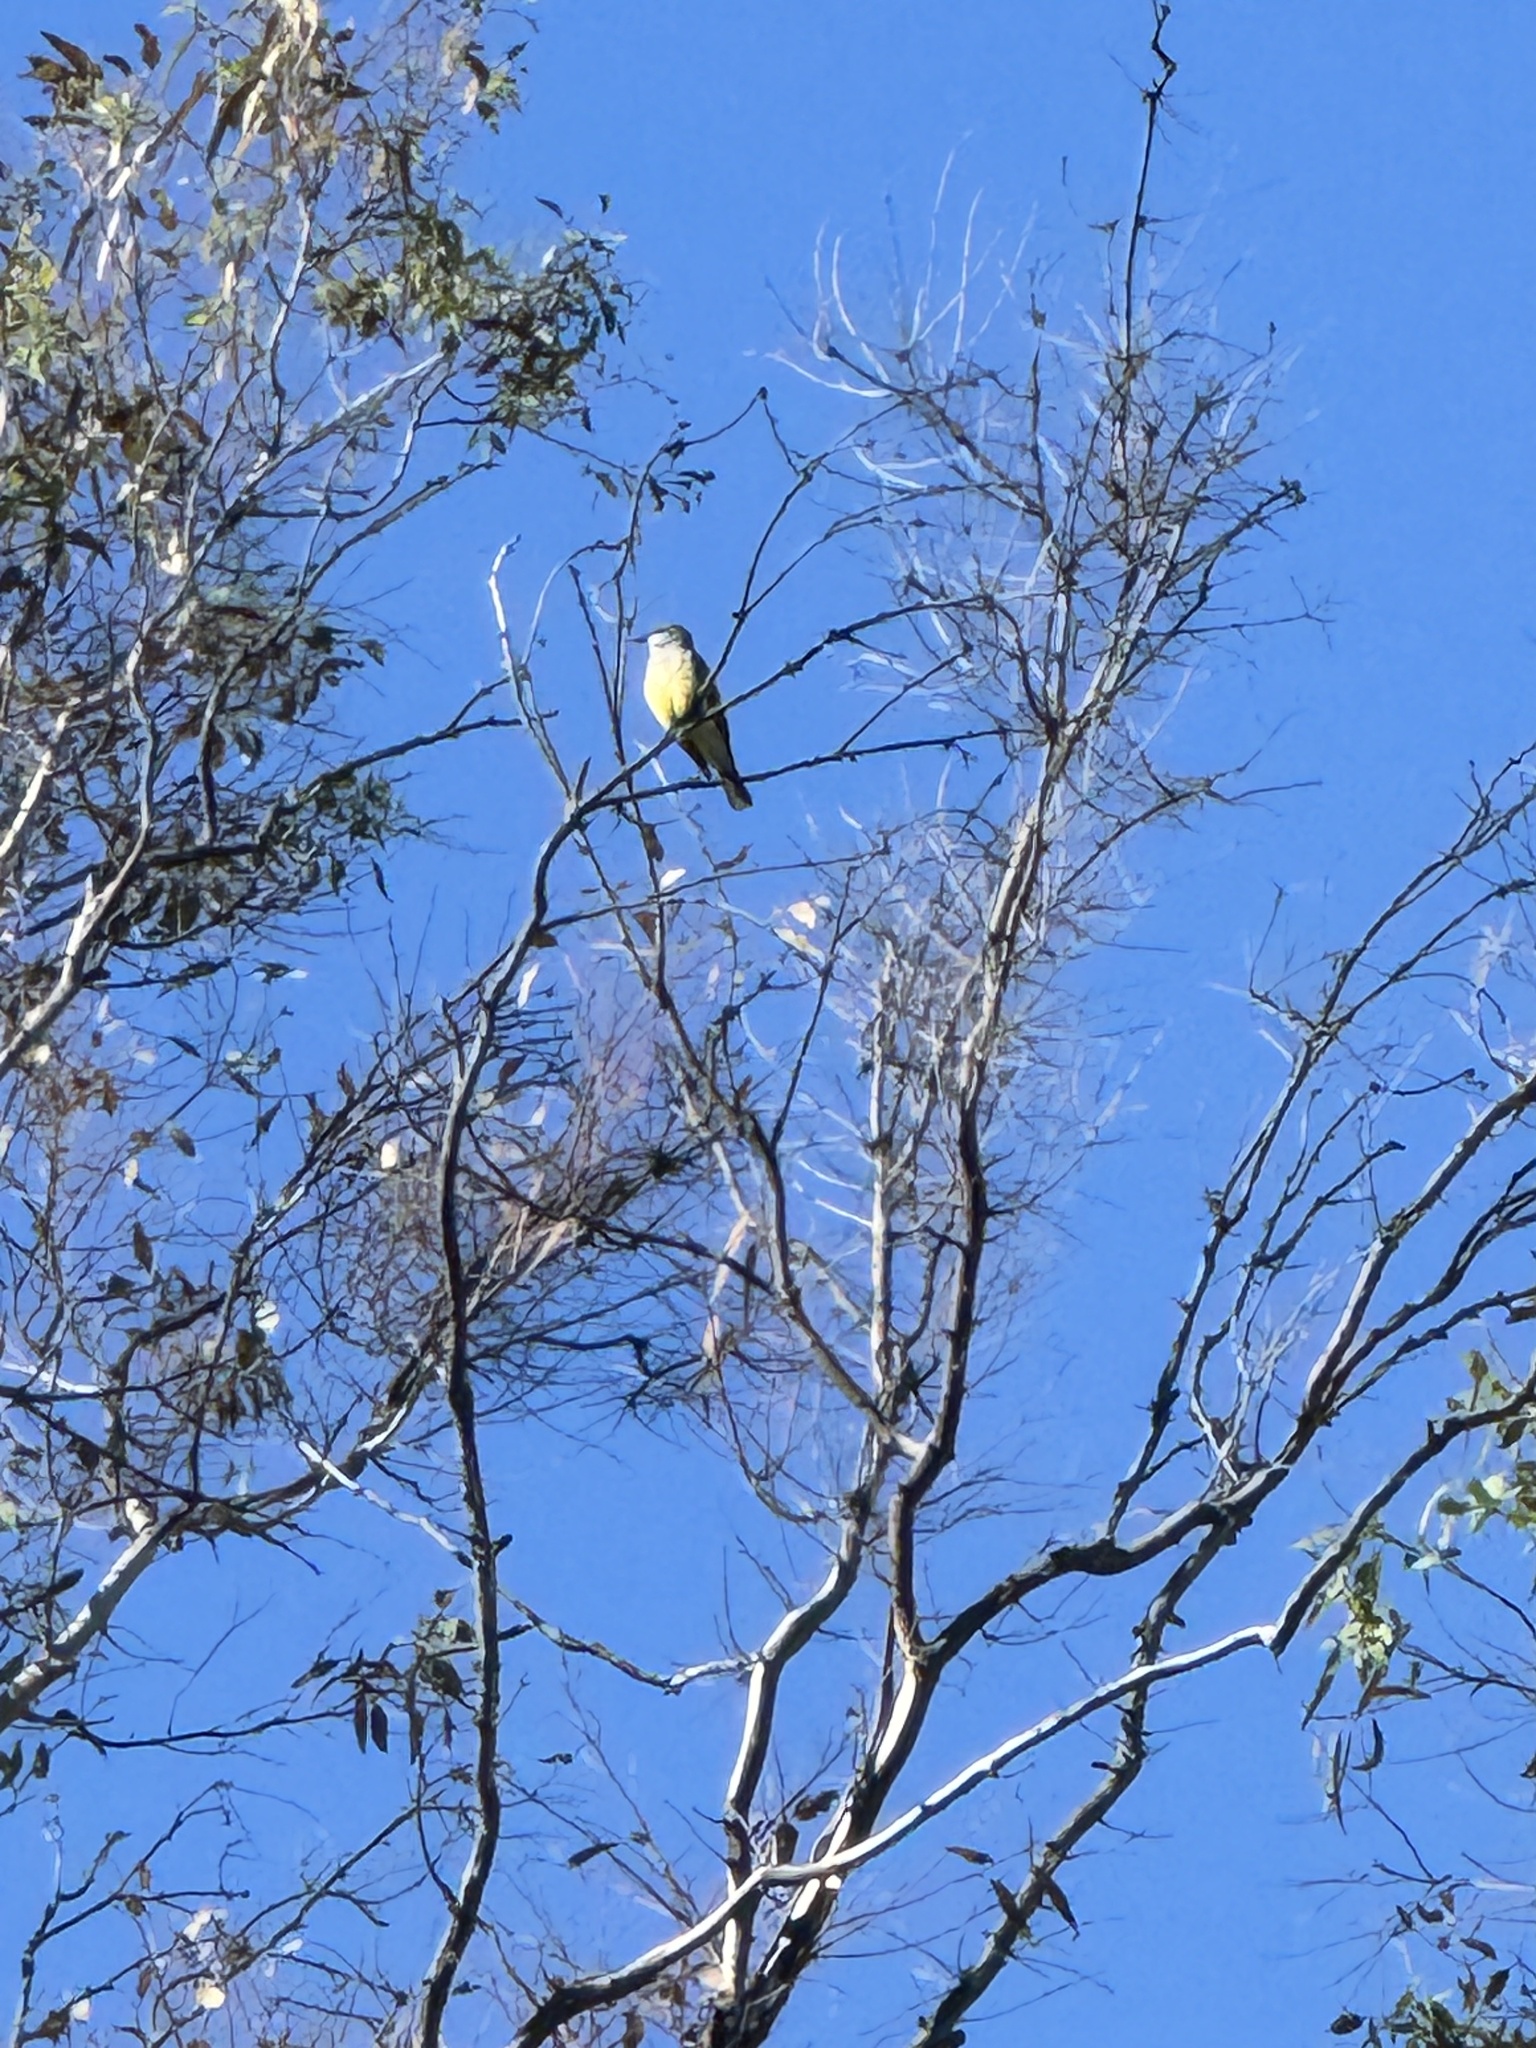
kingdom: Animalia
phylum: Chordata
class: Aves
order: Passeriformes
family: Tyrannidae
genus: Tyrannus
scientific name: Tyrannus vociferans
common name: Cassin's kingbird
